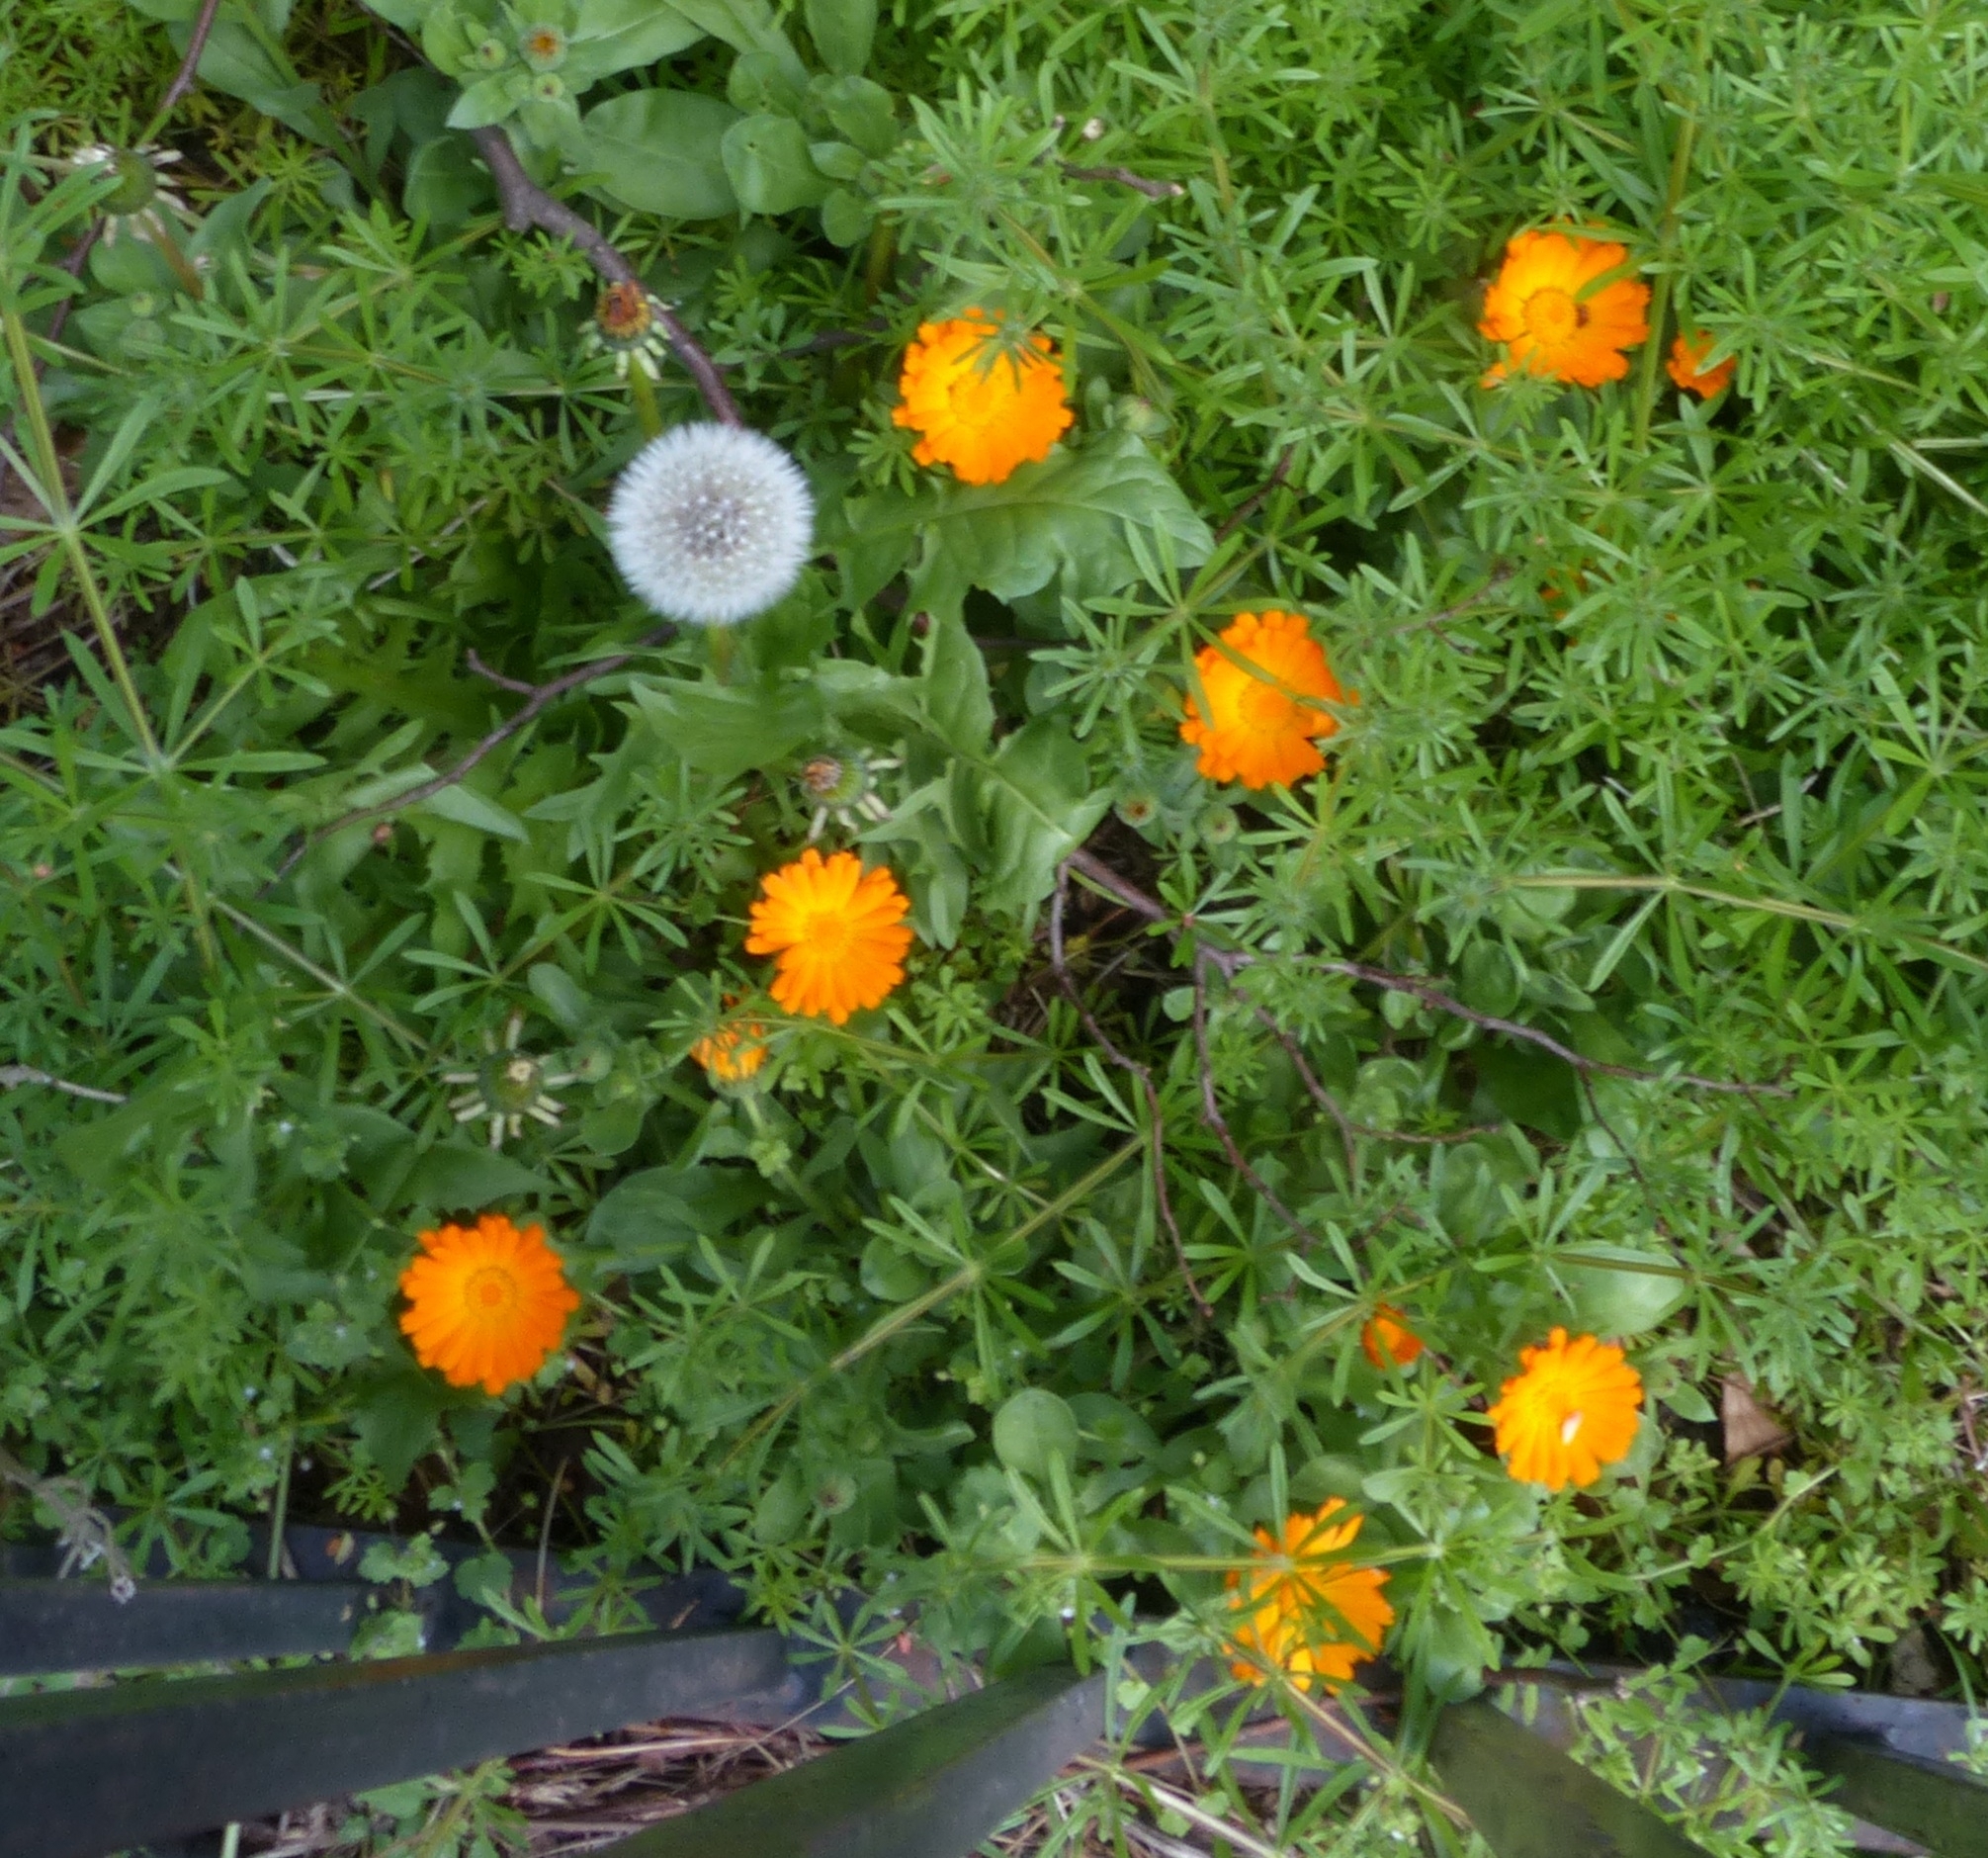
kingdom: Plantae
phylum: Tracheophyta
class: Magnoliopsida
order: Asterales
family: Asteraceae
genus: Calendula
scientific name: Calendula officinalis
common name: Pot marigold
